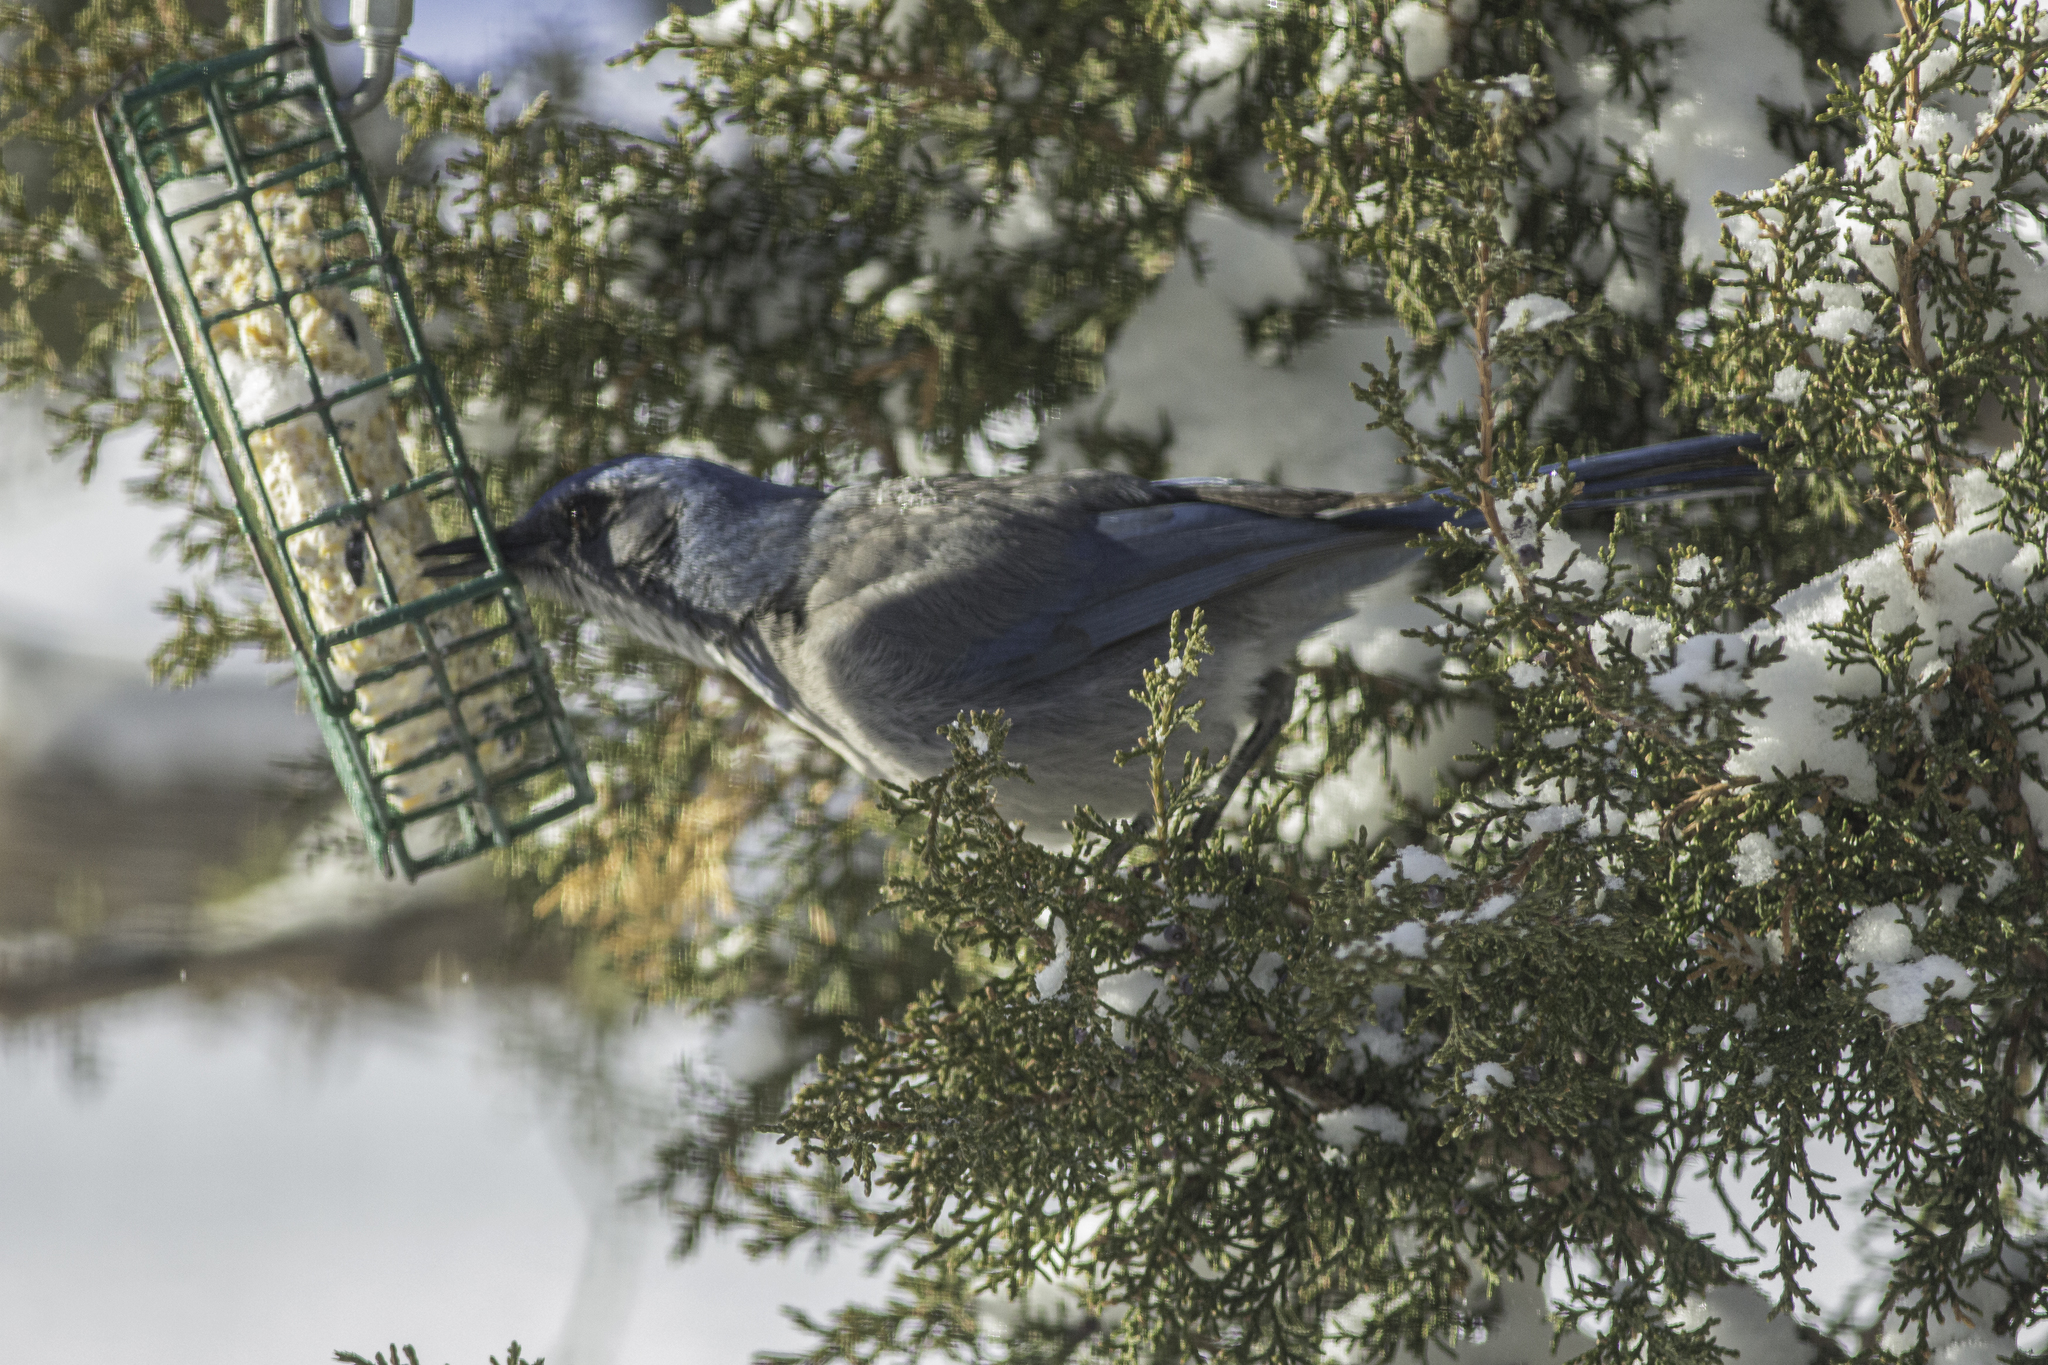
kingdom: Animalia
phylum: Chordata
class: Aves
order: Passeriformes
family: Corvidae
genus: Aphelocoma
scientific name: Aphelocoma woodhouseii
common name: Woodhouse's scrub-jay
